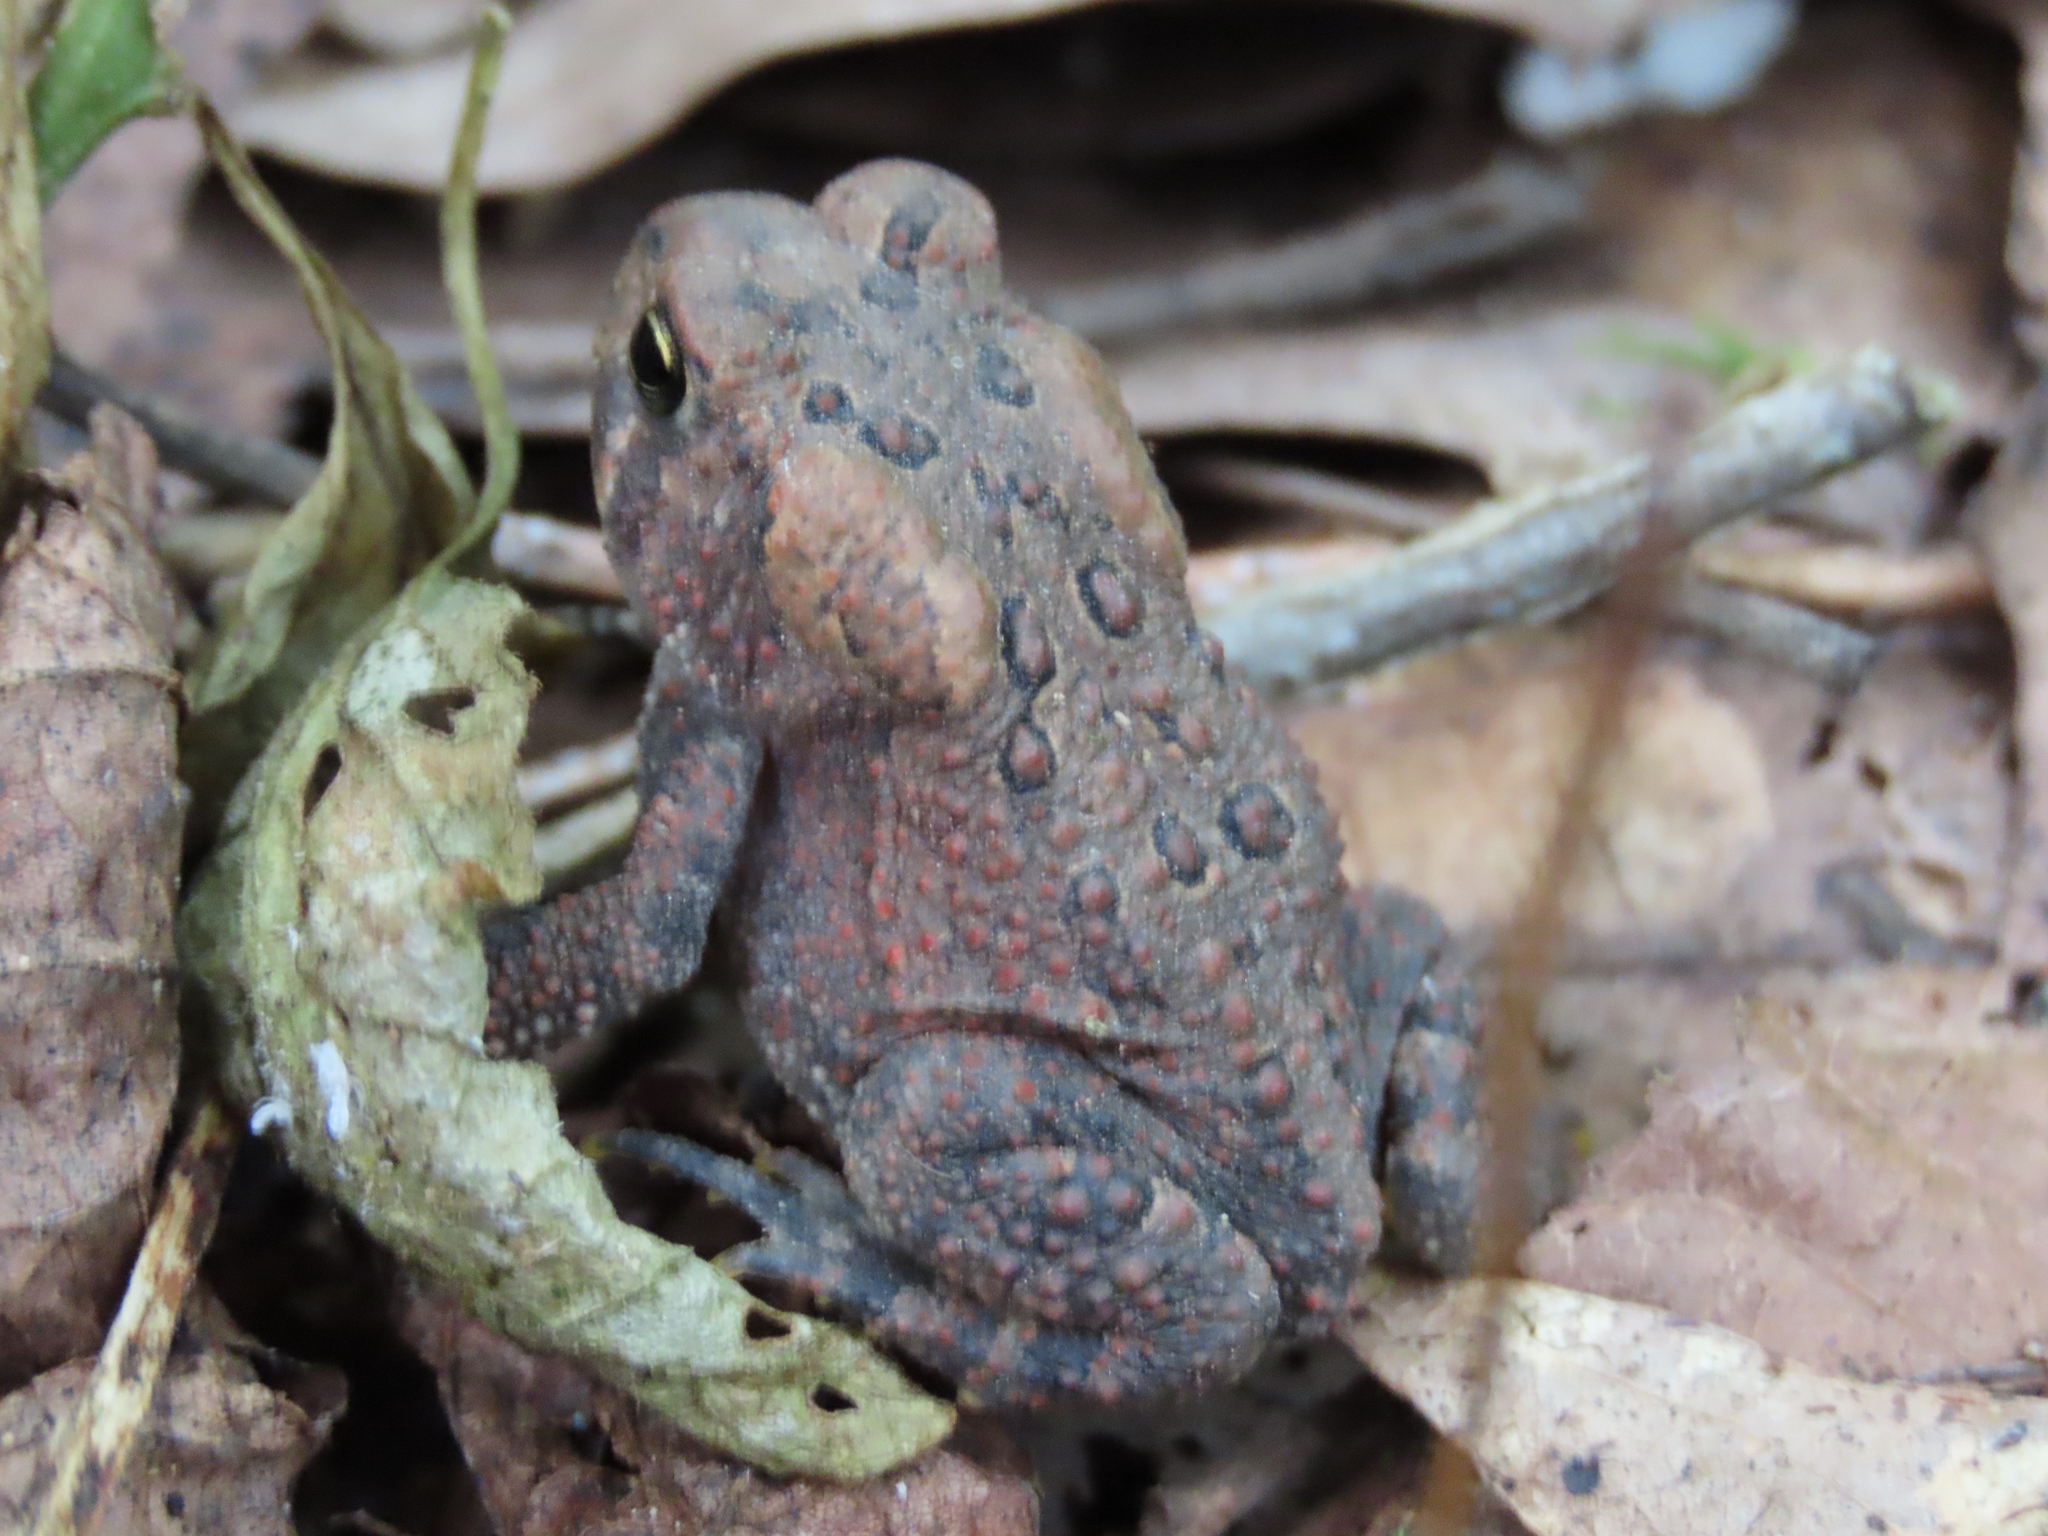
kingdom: Animalia
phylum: Chordata
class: Amphibia
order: Anura
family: Bufonidae
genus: Anaxyrus
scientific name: Anaxyrus americanus
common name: American toad
